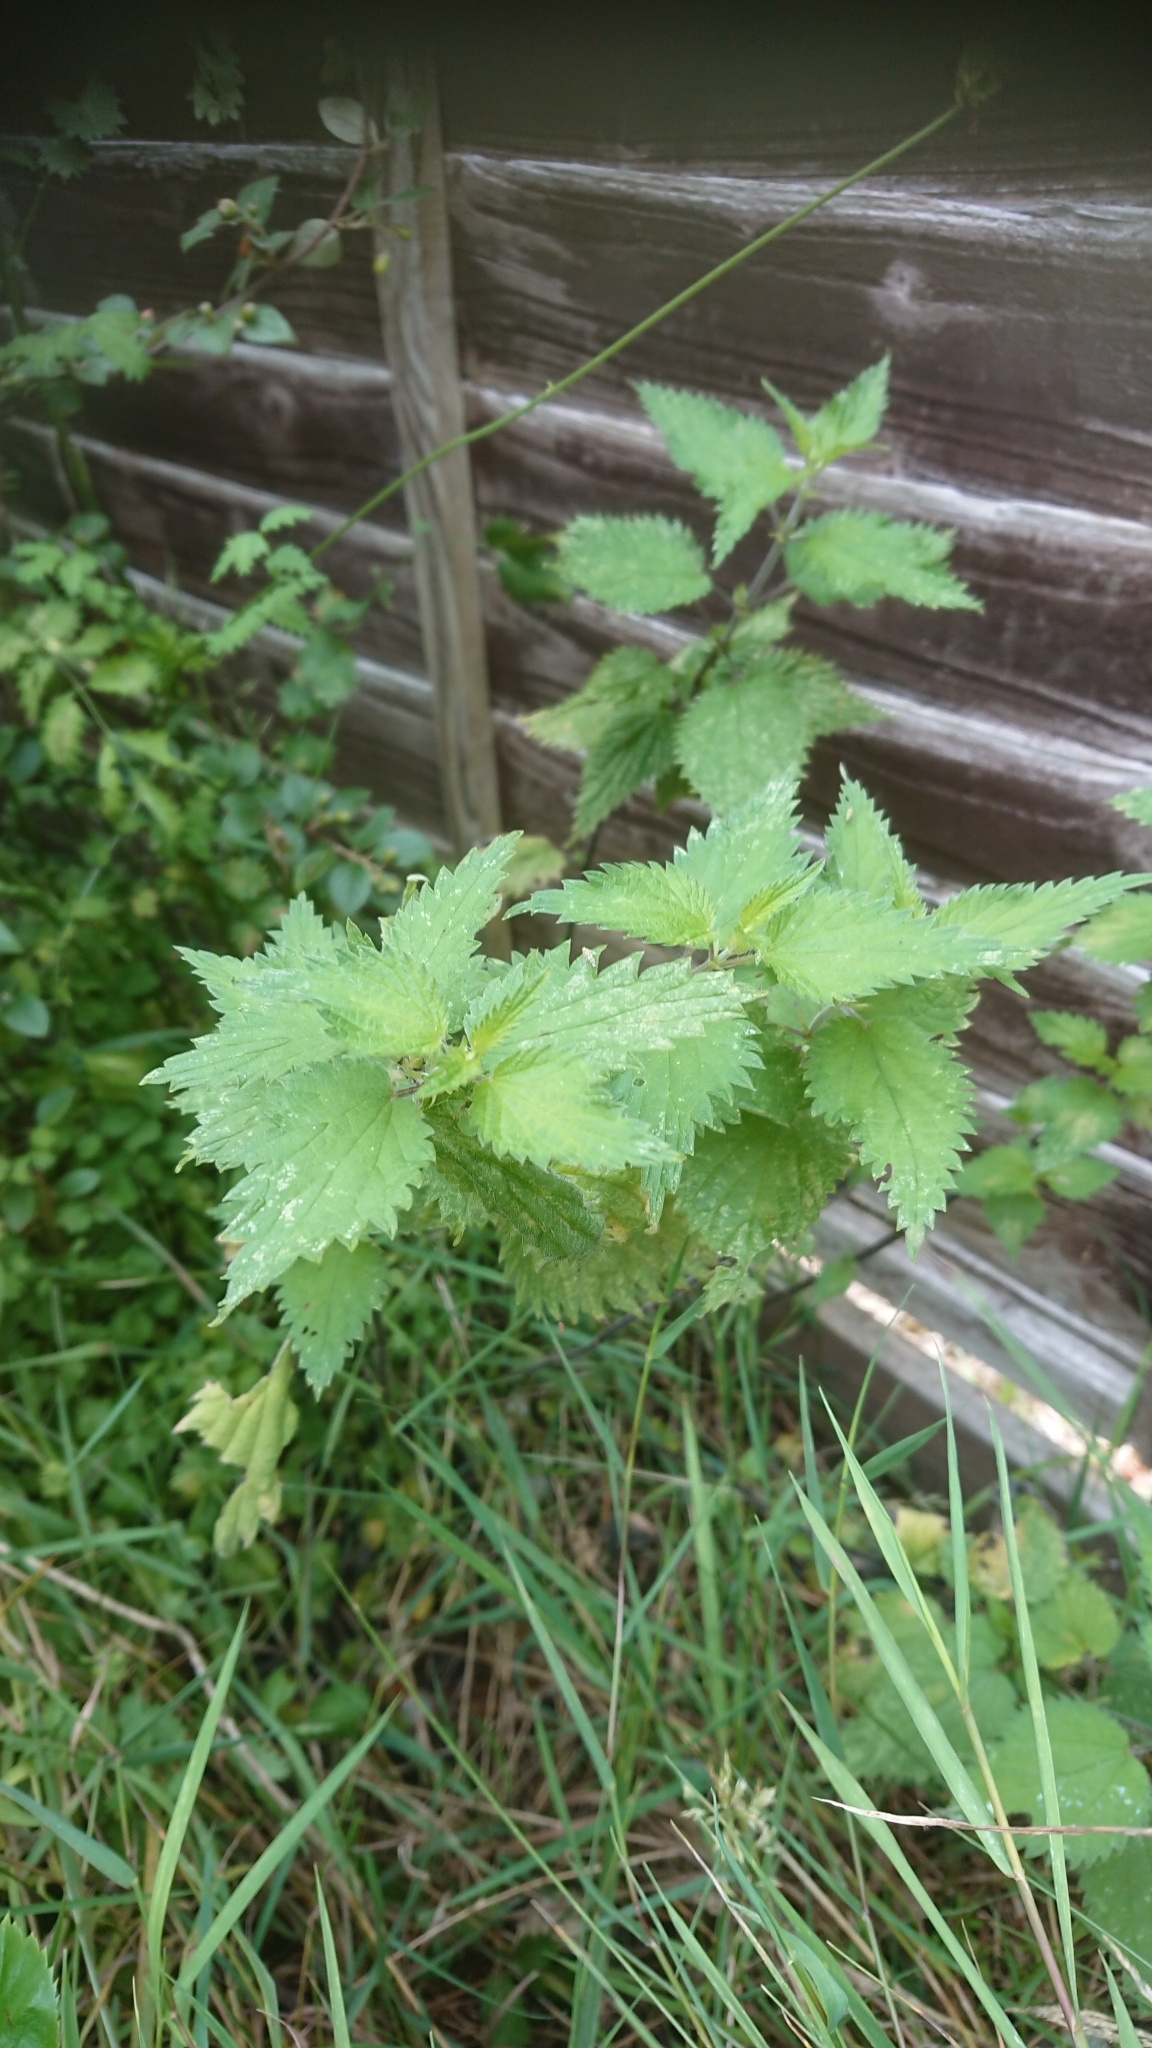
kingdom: Plantae
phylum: Tracheophyta
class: Magnoliopsida
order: Rosales
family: Urticaceae
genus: Urtica
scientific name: Urtica dioica
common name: Common nettle
